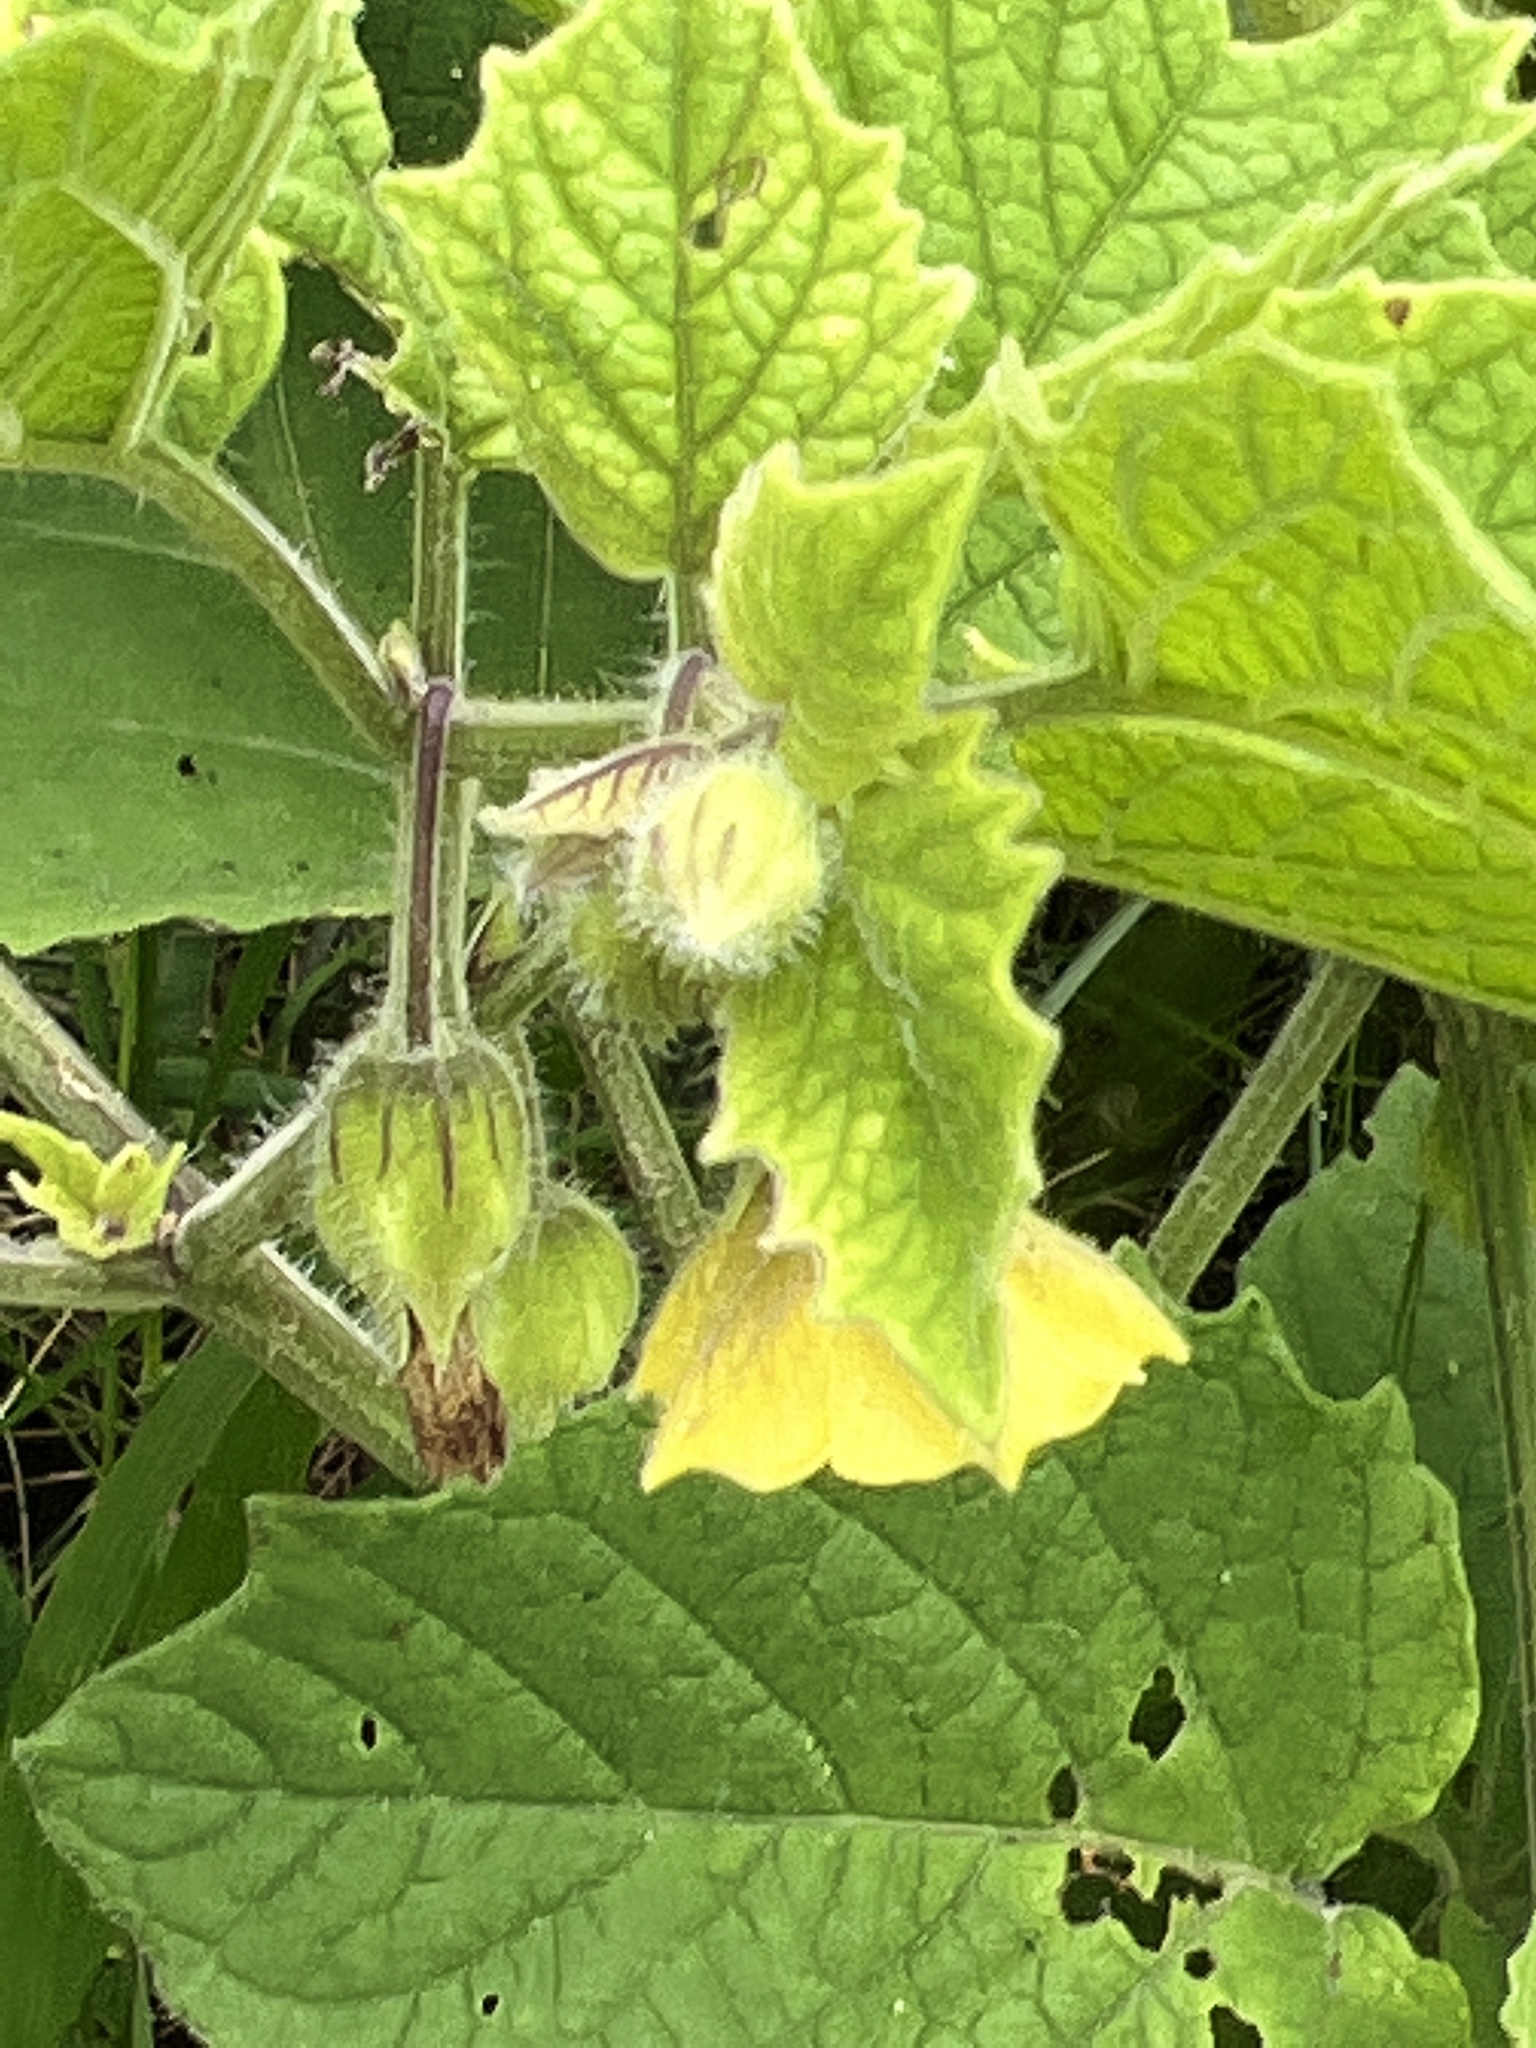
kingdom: Plantae
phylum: Tracheophyta
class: Magnoliopsida
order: Solanales
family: Solanaceae
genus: Physalis
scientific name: Physalis heterophylla
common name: Clammy ground-cherry
